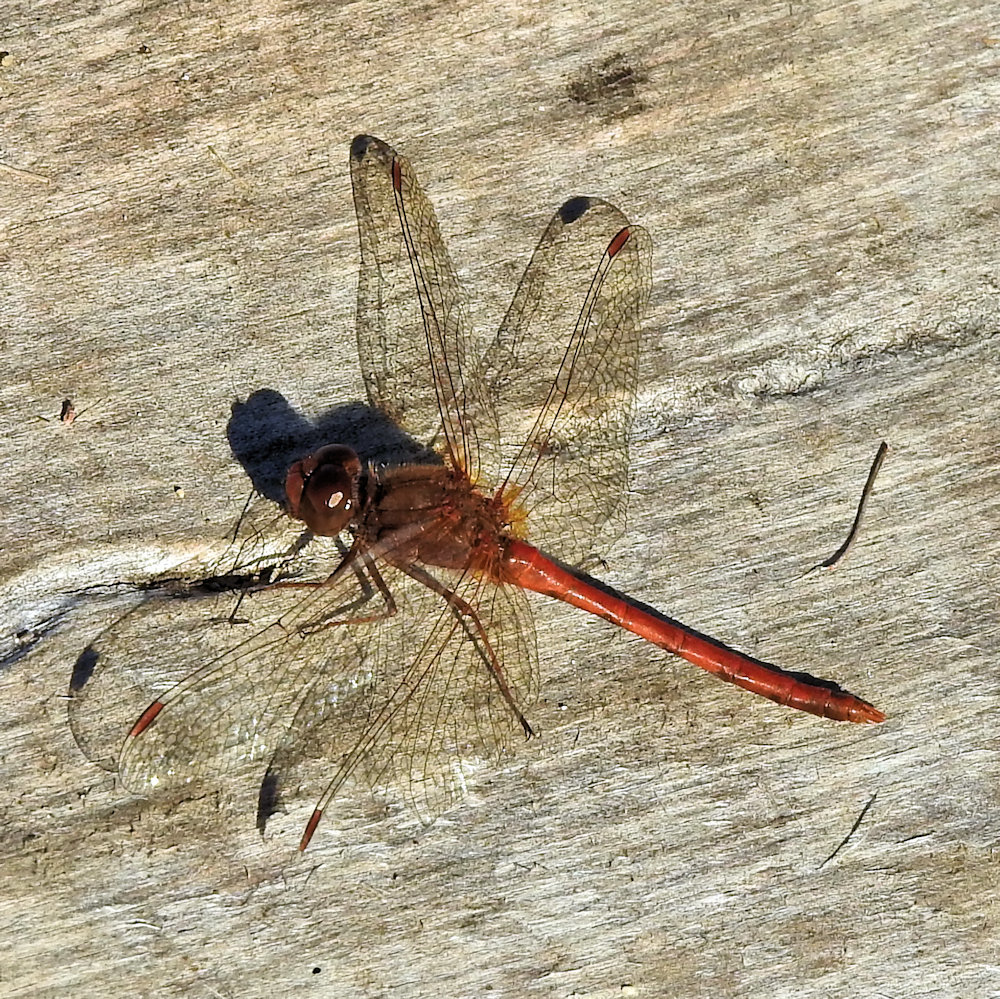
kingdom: Animalia
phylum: Arthropoda
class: Insecta
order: Odonata
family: Libellulidae
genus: Sympetrum
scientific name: Sympetrum vicinum
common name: Autumn meadowhawk
